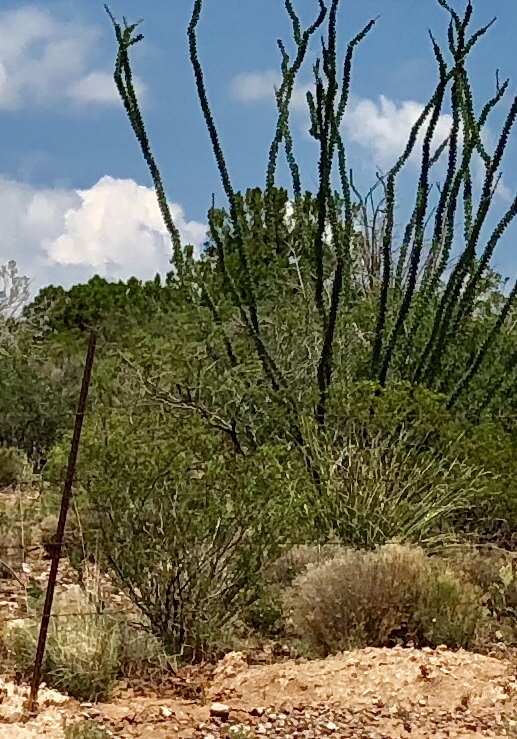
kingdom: Plantae
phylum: Tracheophyta
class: Magnoliopsida
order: Zygophyllales
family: Zygophyllaceae
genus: Larrea
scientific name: Larrea tridentata
